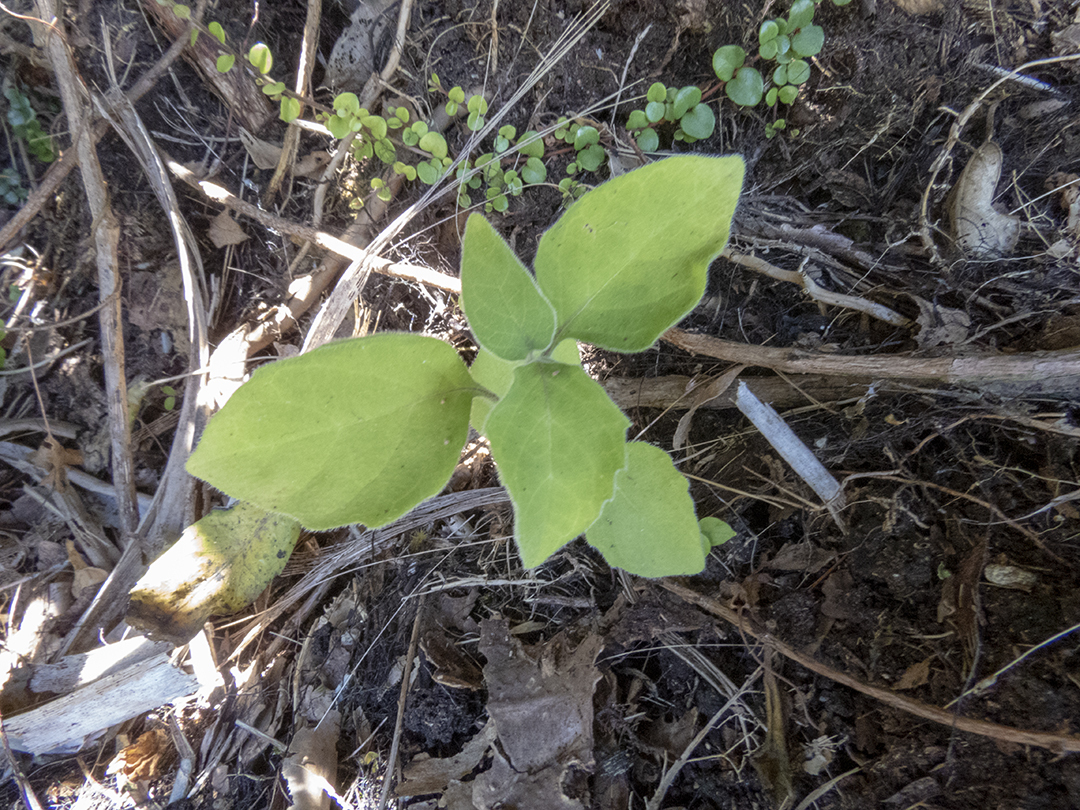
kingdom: Plantae
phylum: Tracheophyta
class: Magnoliopsida
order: Solanales
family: Solanaceae
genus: Solanum
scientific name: Solanum chenopodioides
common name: Tall nightshade
